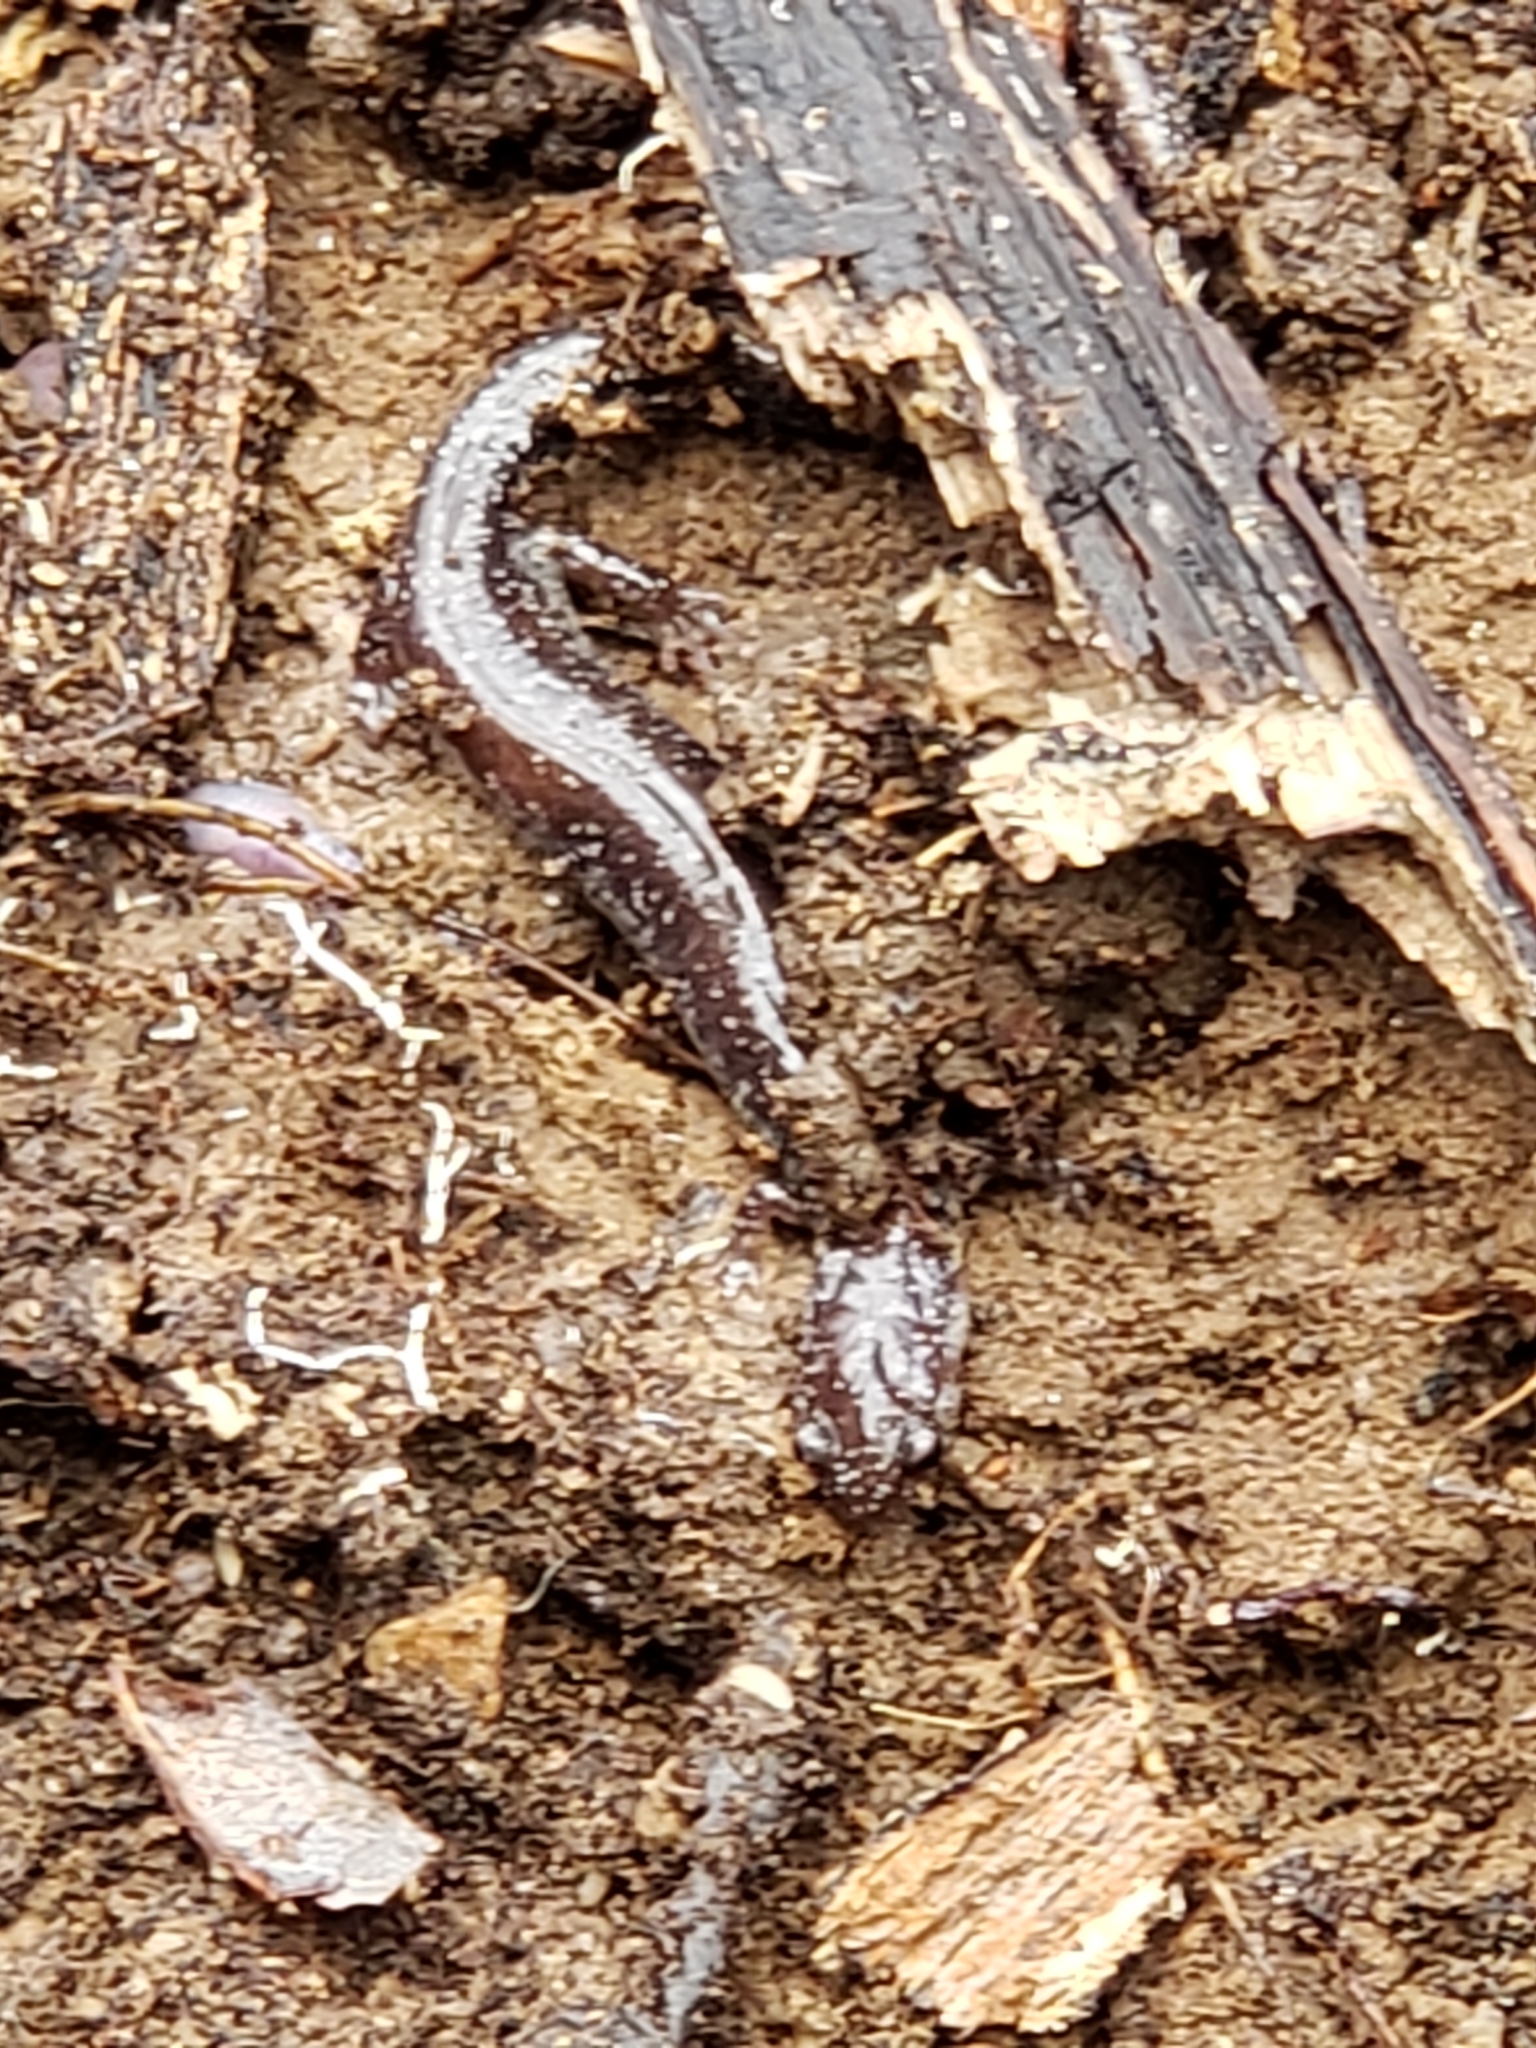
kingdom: Animalia
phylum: Chordata
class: Amphibia
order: Caudata
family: Plethodontidae
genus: Plethodon
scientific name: Plethodon cinereus
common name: Redback salamander
